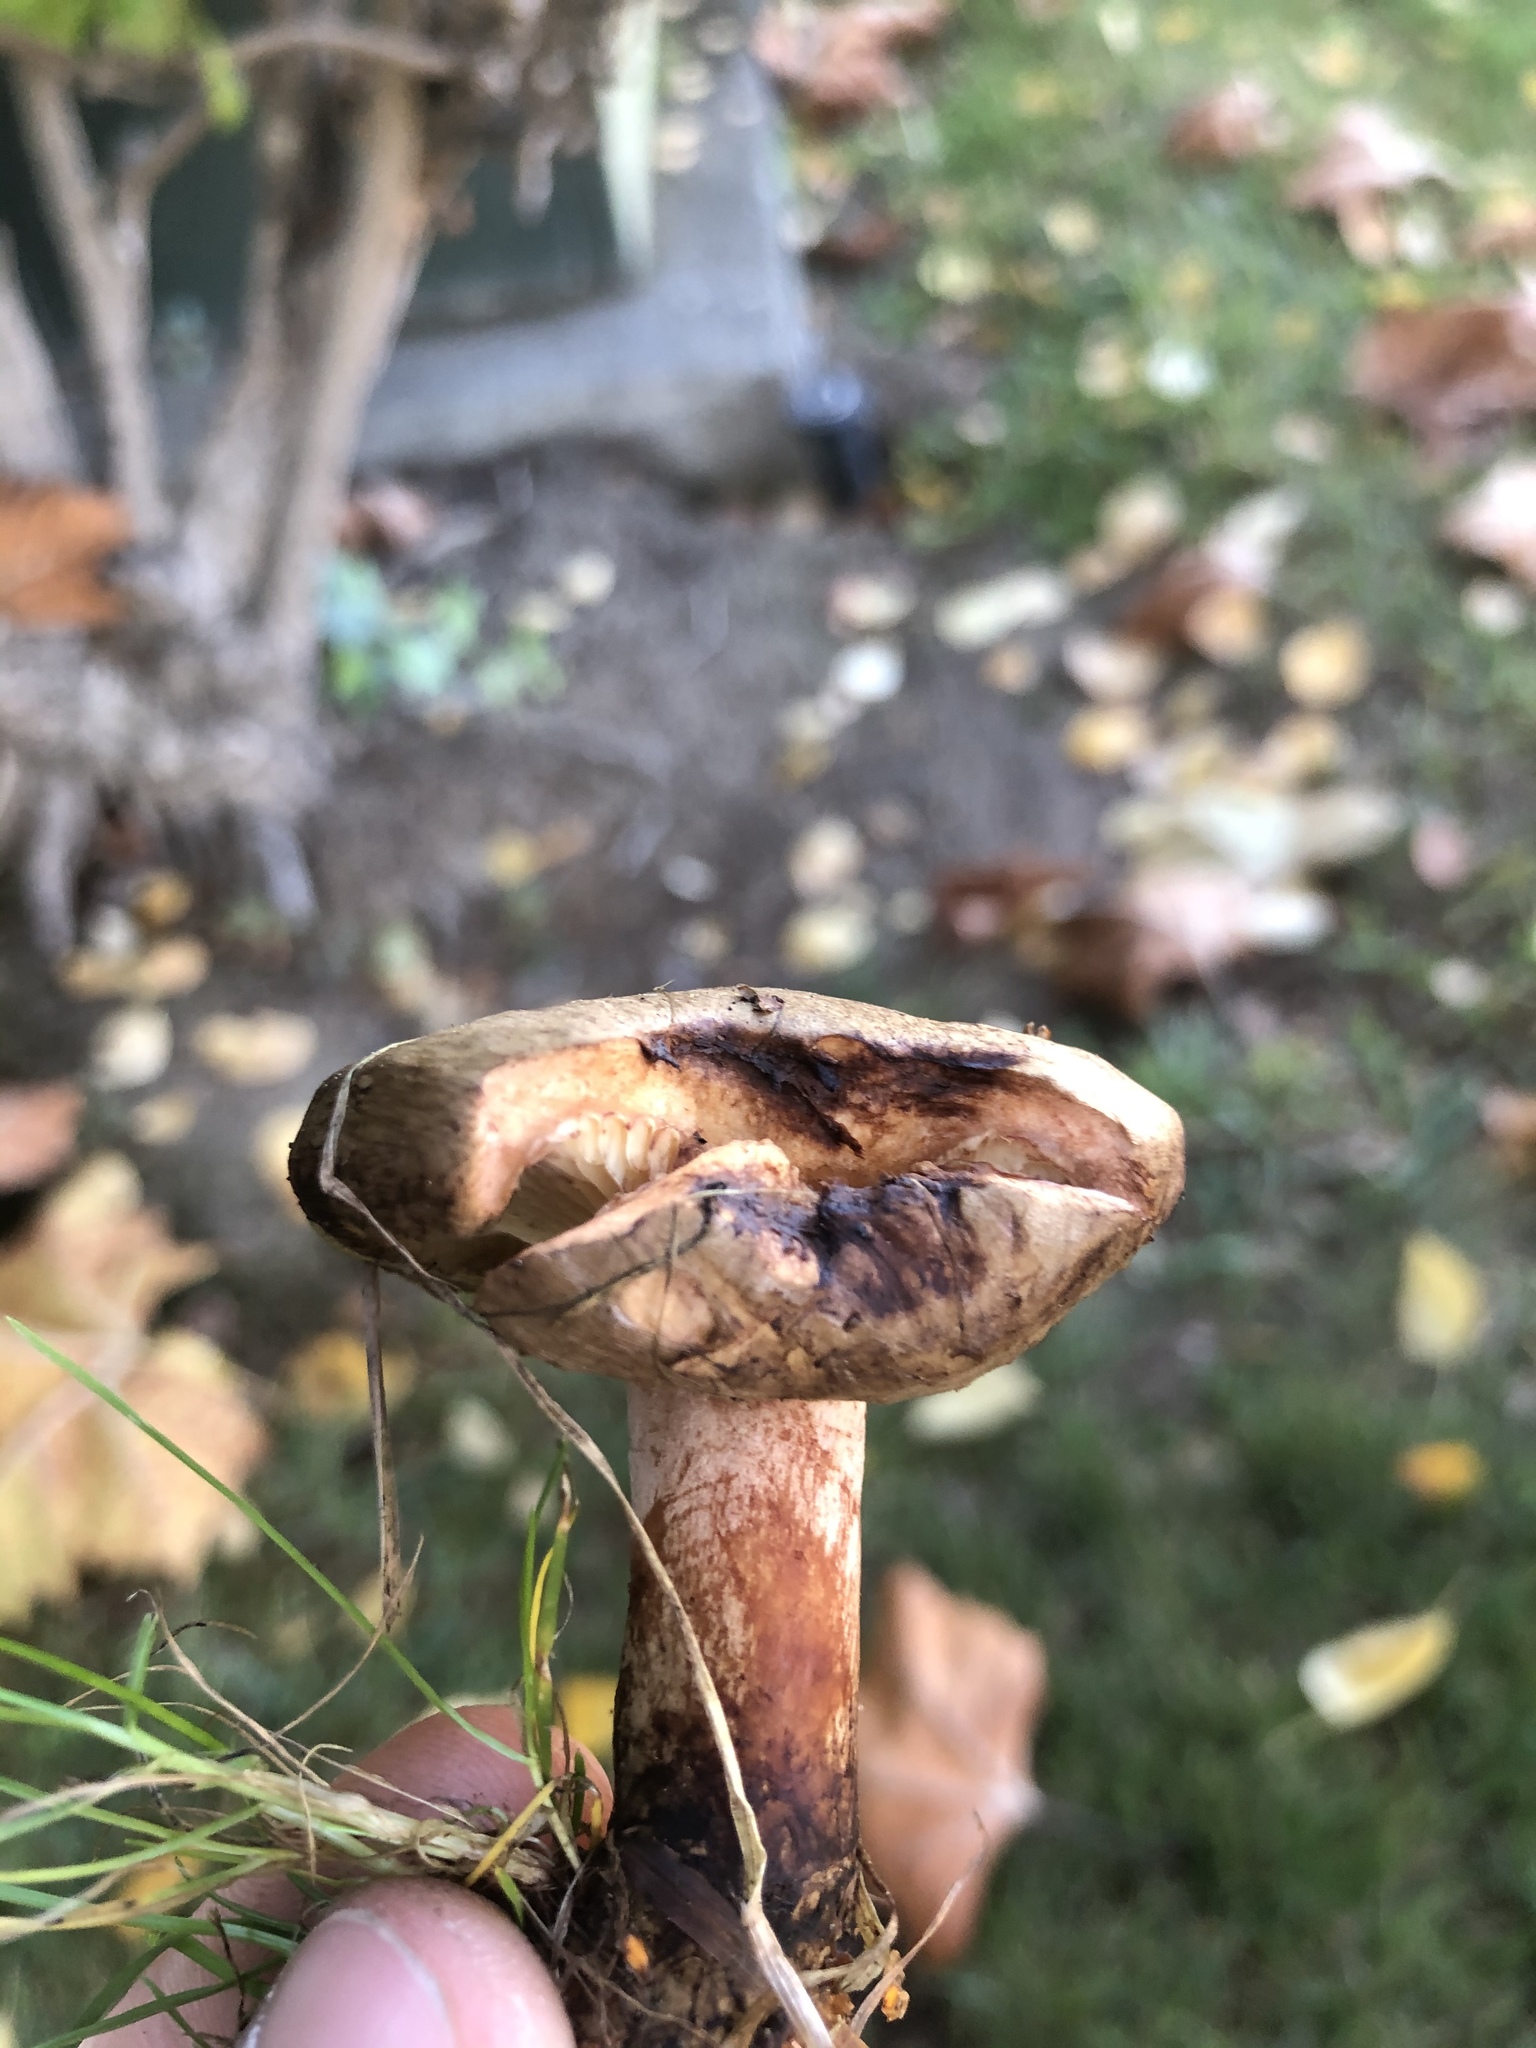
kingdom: Fungi
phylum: Basidiomycota
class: Agaricomycetes
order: Boletales
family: Paxillaceae
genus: Paxillus
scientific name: Paxillus involutus
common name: Brown roll rim
